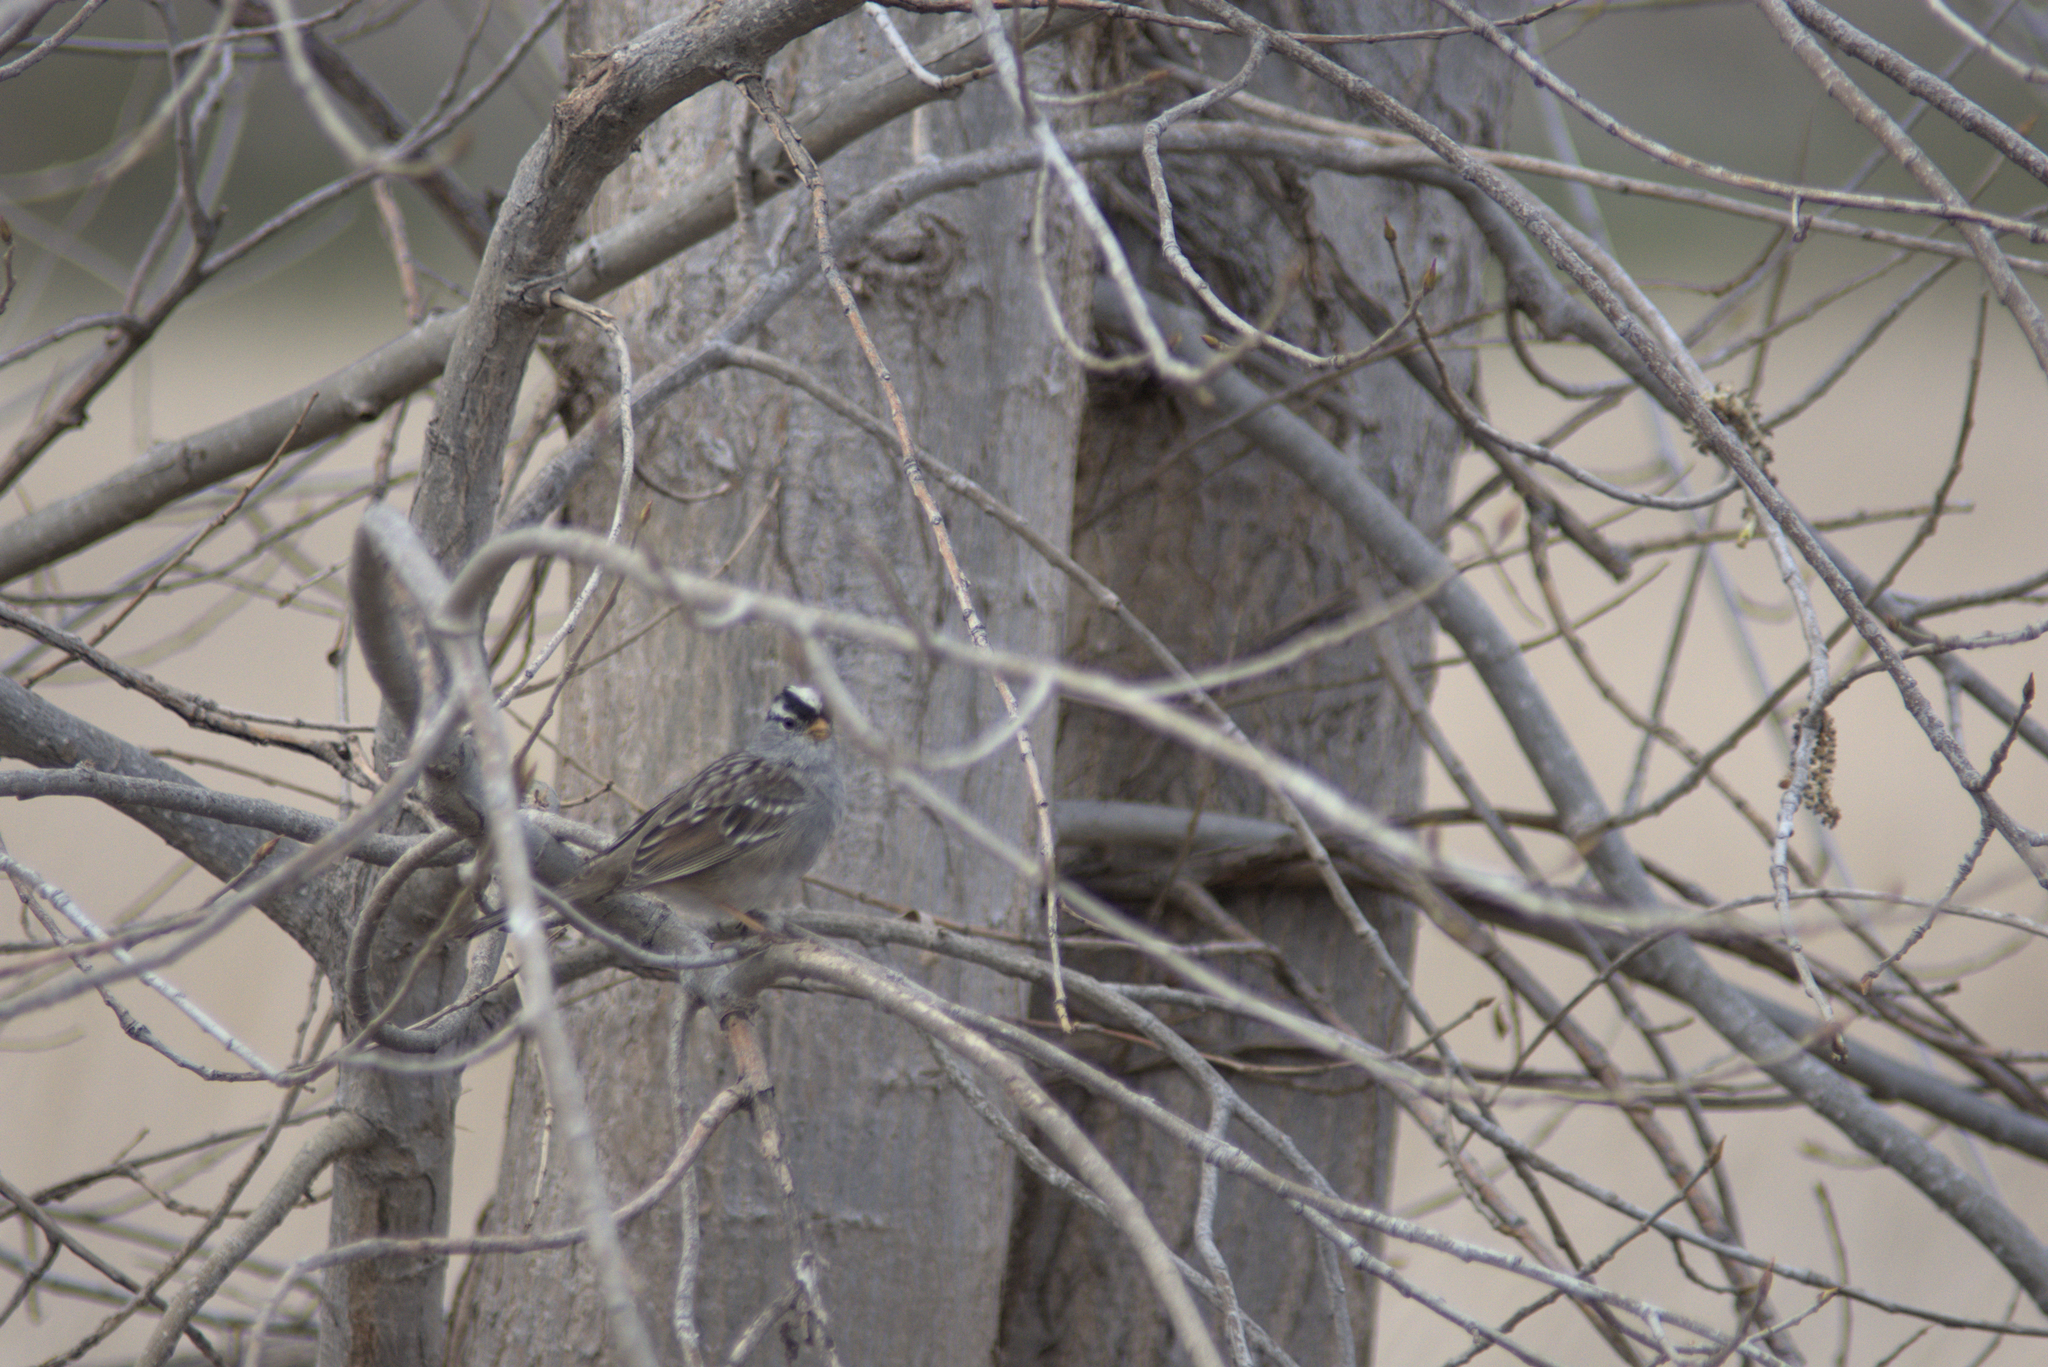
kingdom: Animalia
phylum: Chordata
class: Aves
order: Passeriformes
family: Passerellidae
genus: Zonotrichia
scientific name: Zonotrichia leucophrys
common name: White-crowned sparrow
